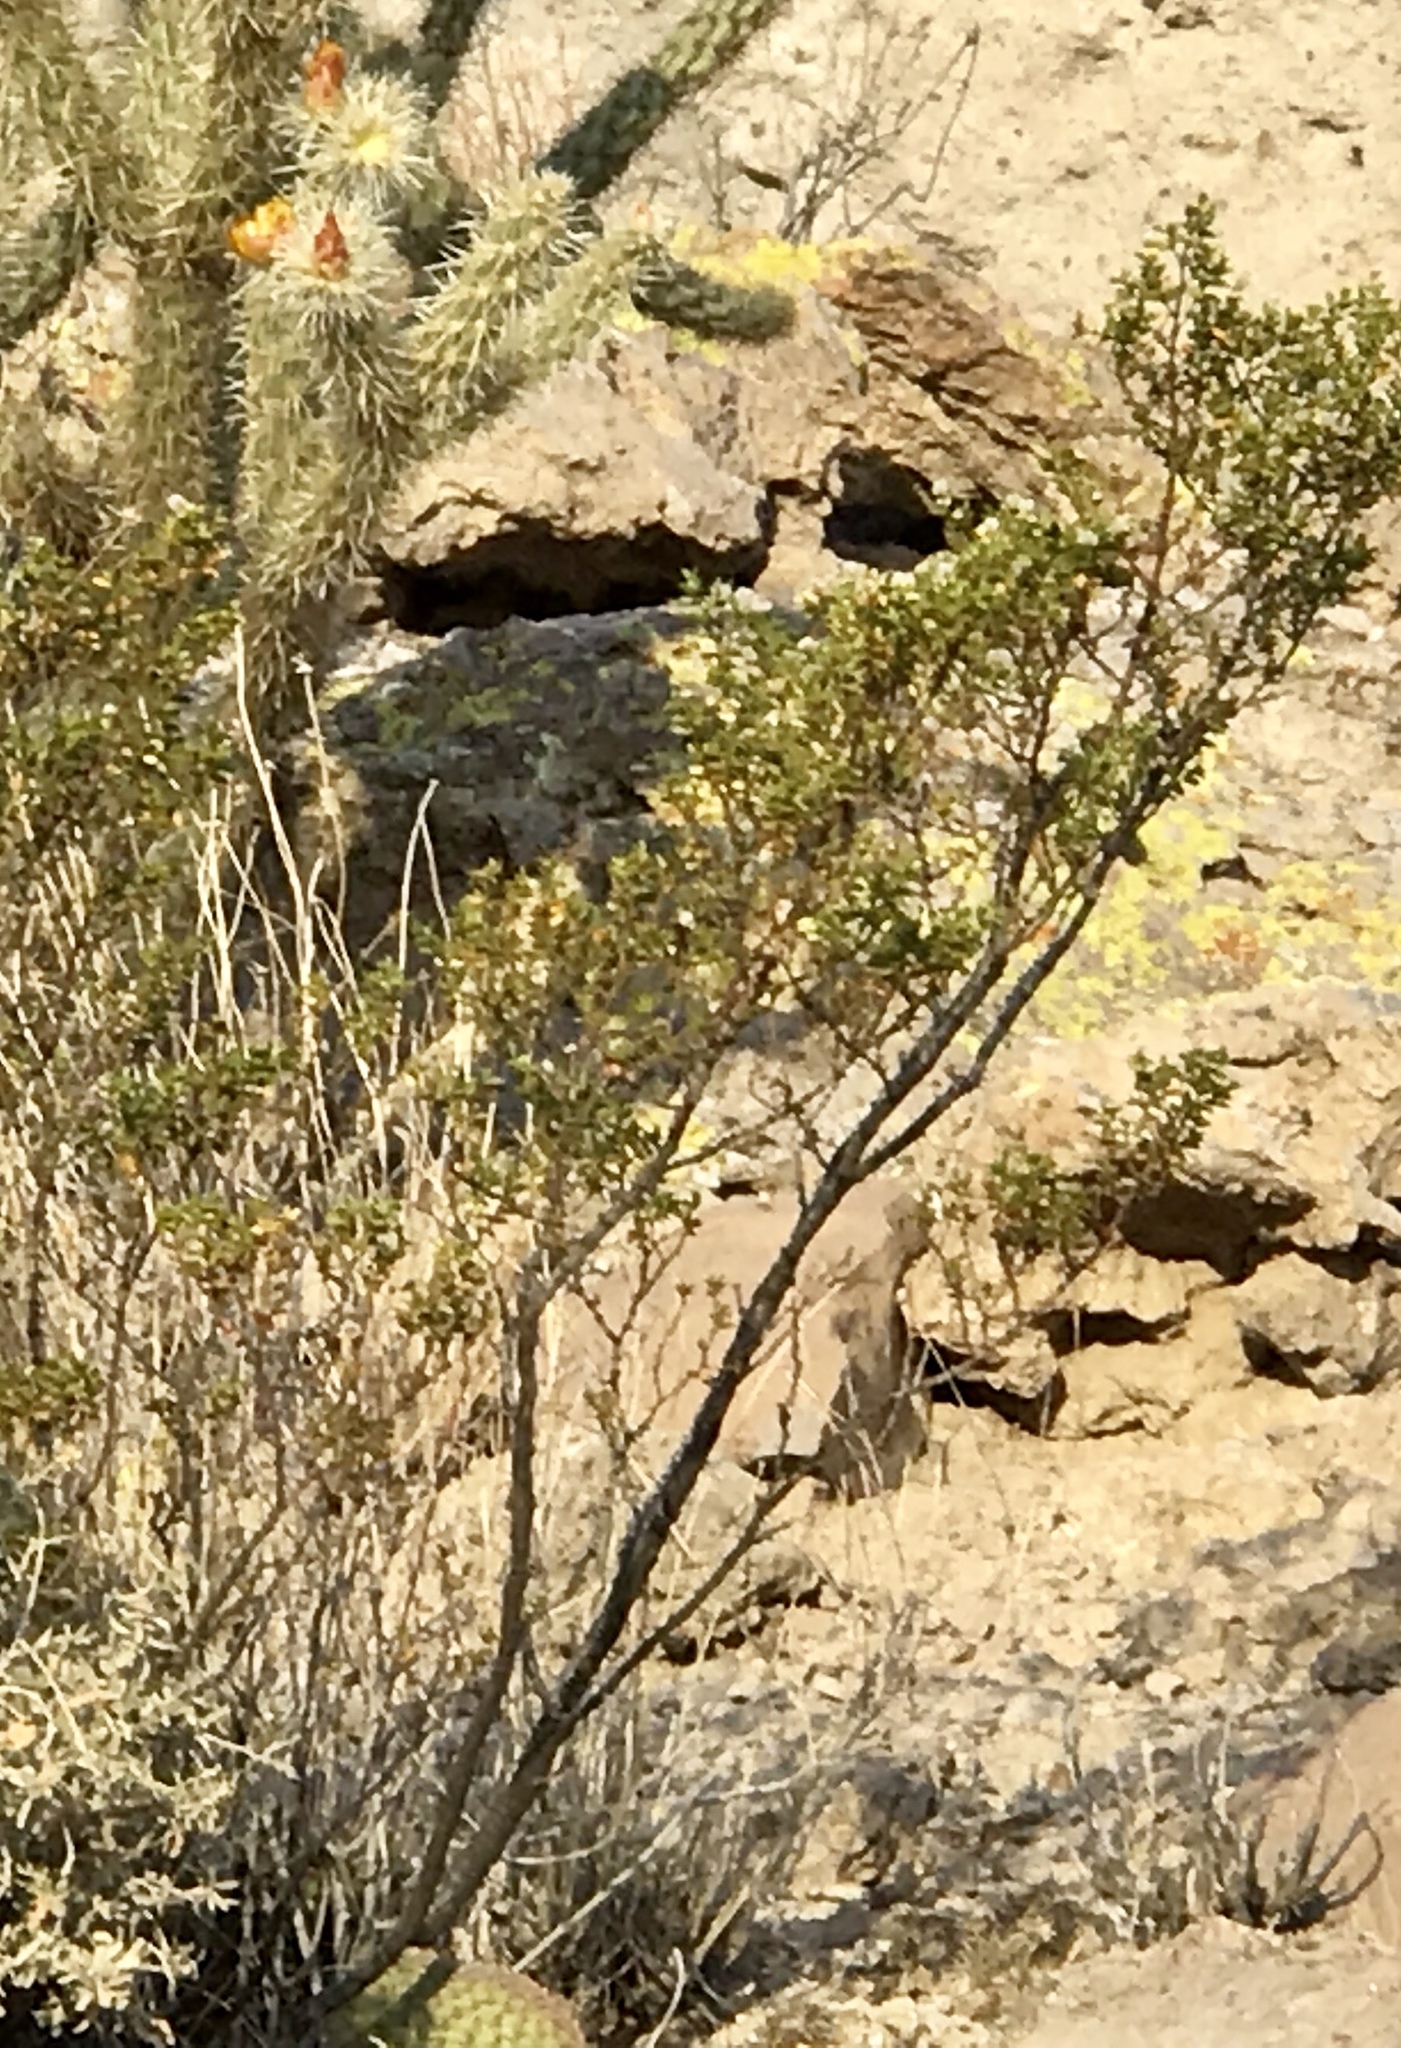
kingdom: Plantae
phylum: Tracheophyta
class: Magnoliopsida
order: Zygophyllales
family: Zygophyllaceae
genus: Larrea
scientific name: Larrea tridentata
